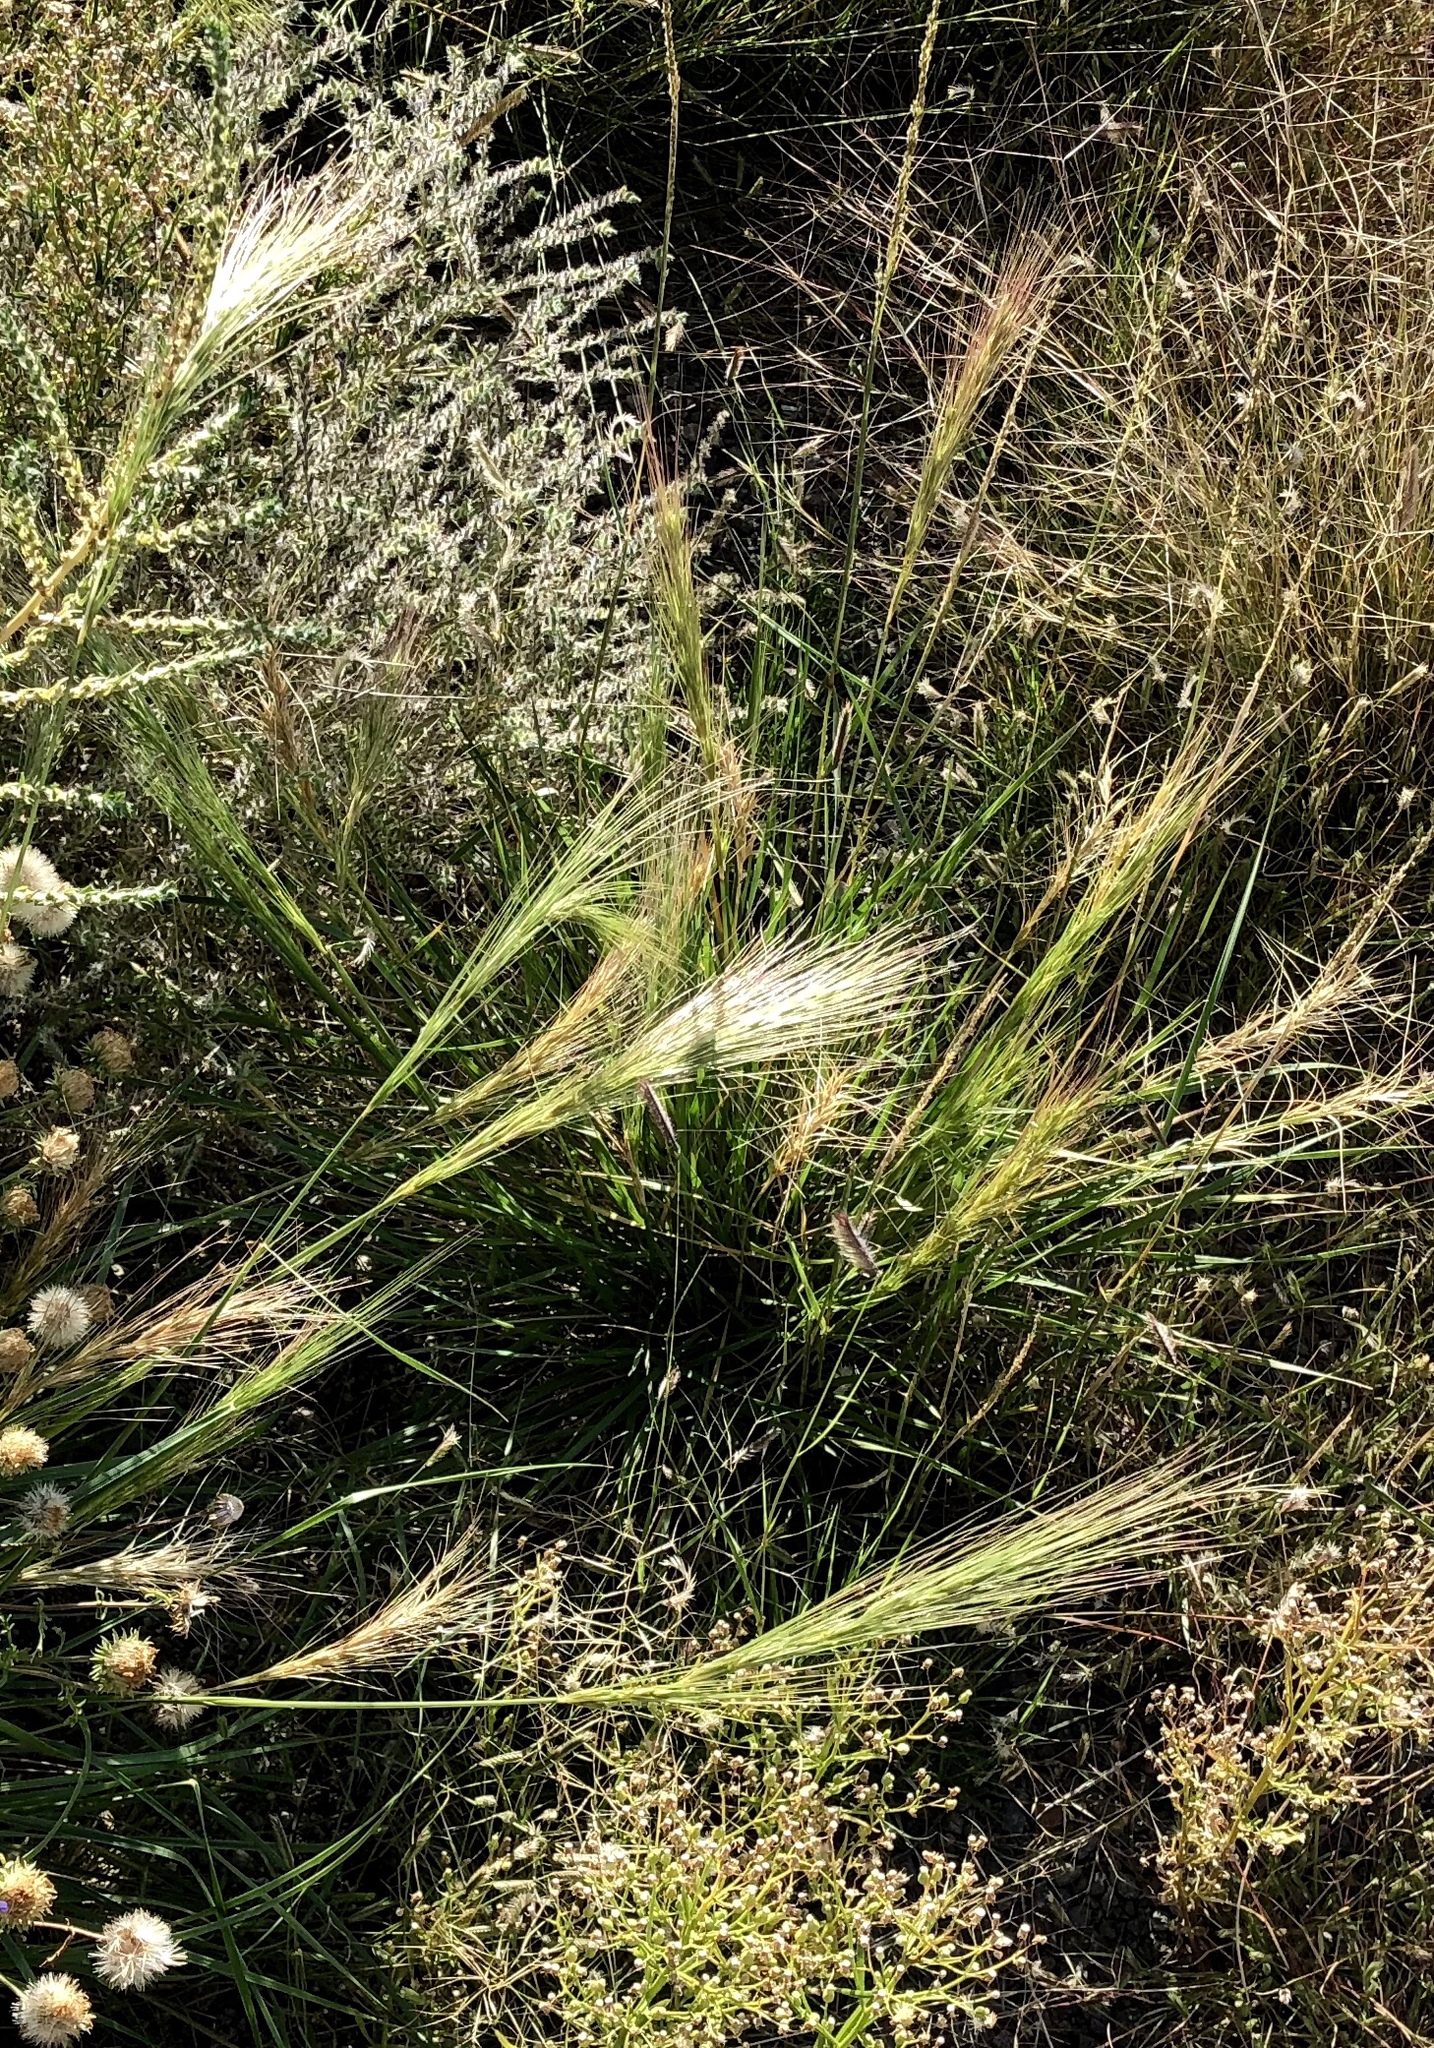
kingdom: Plantae
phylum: Tracheophyta
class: Liliopsida
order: Poales
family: Poaceae
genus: Elymus
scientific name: Elymus longifolius
